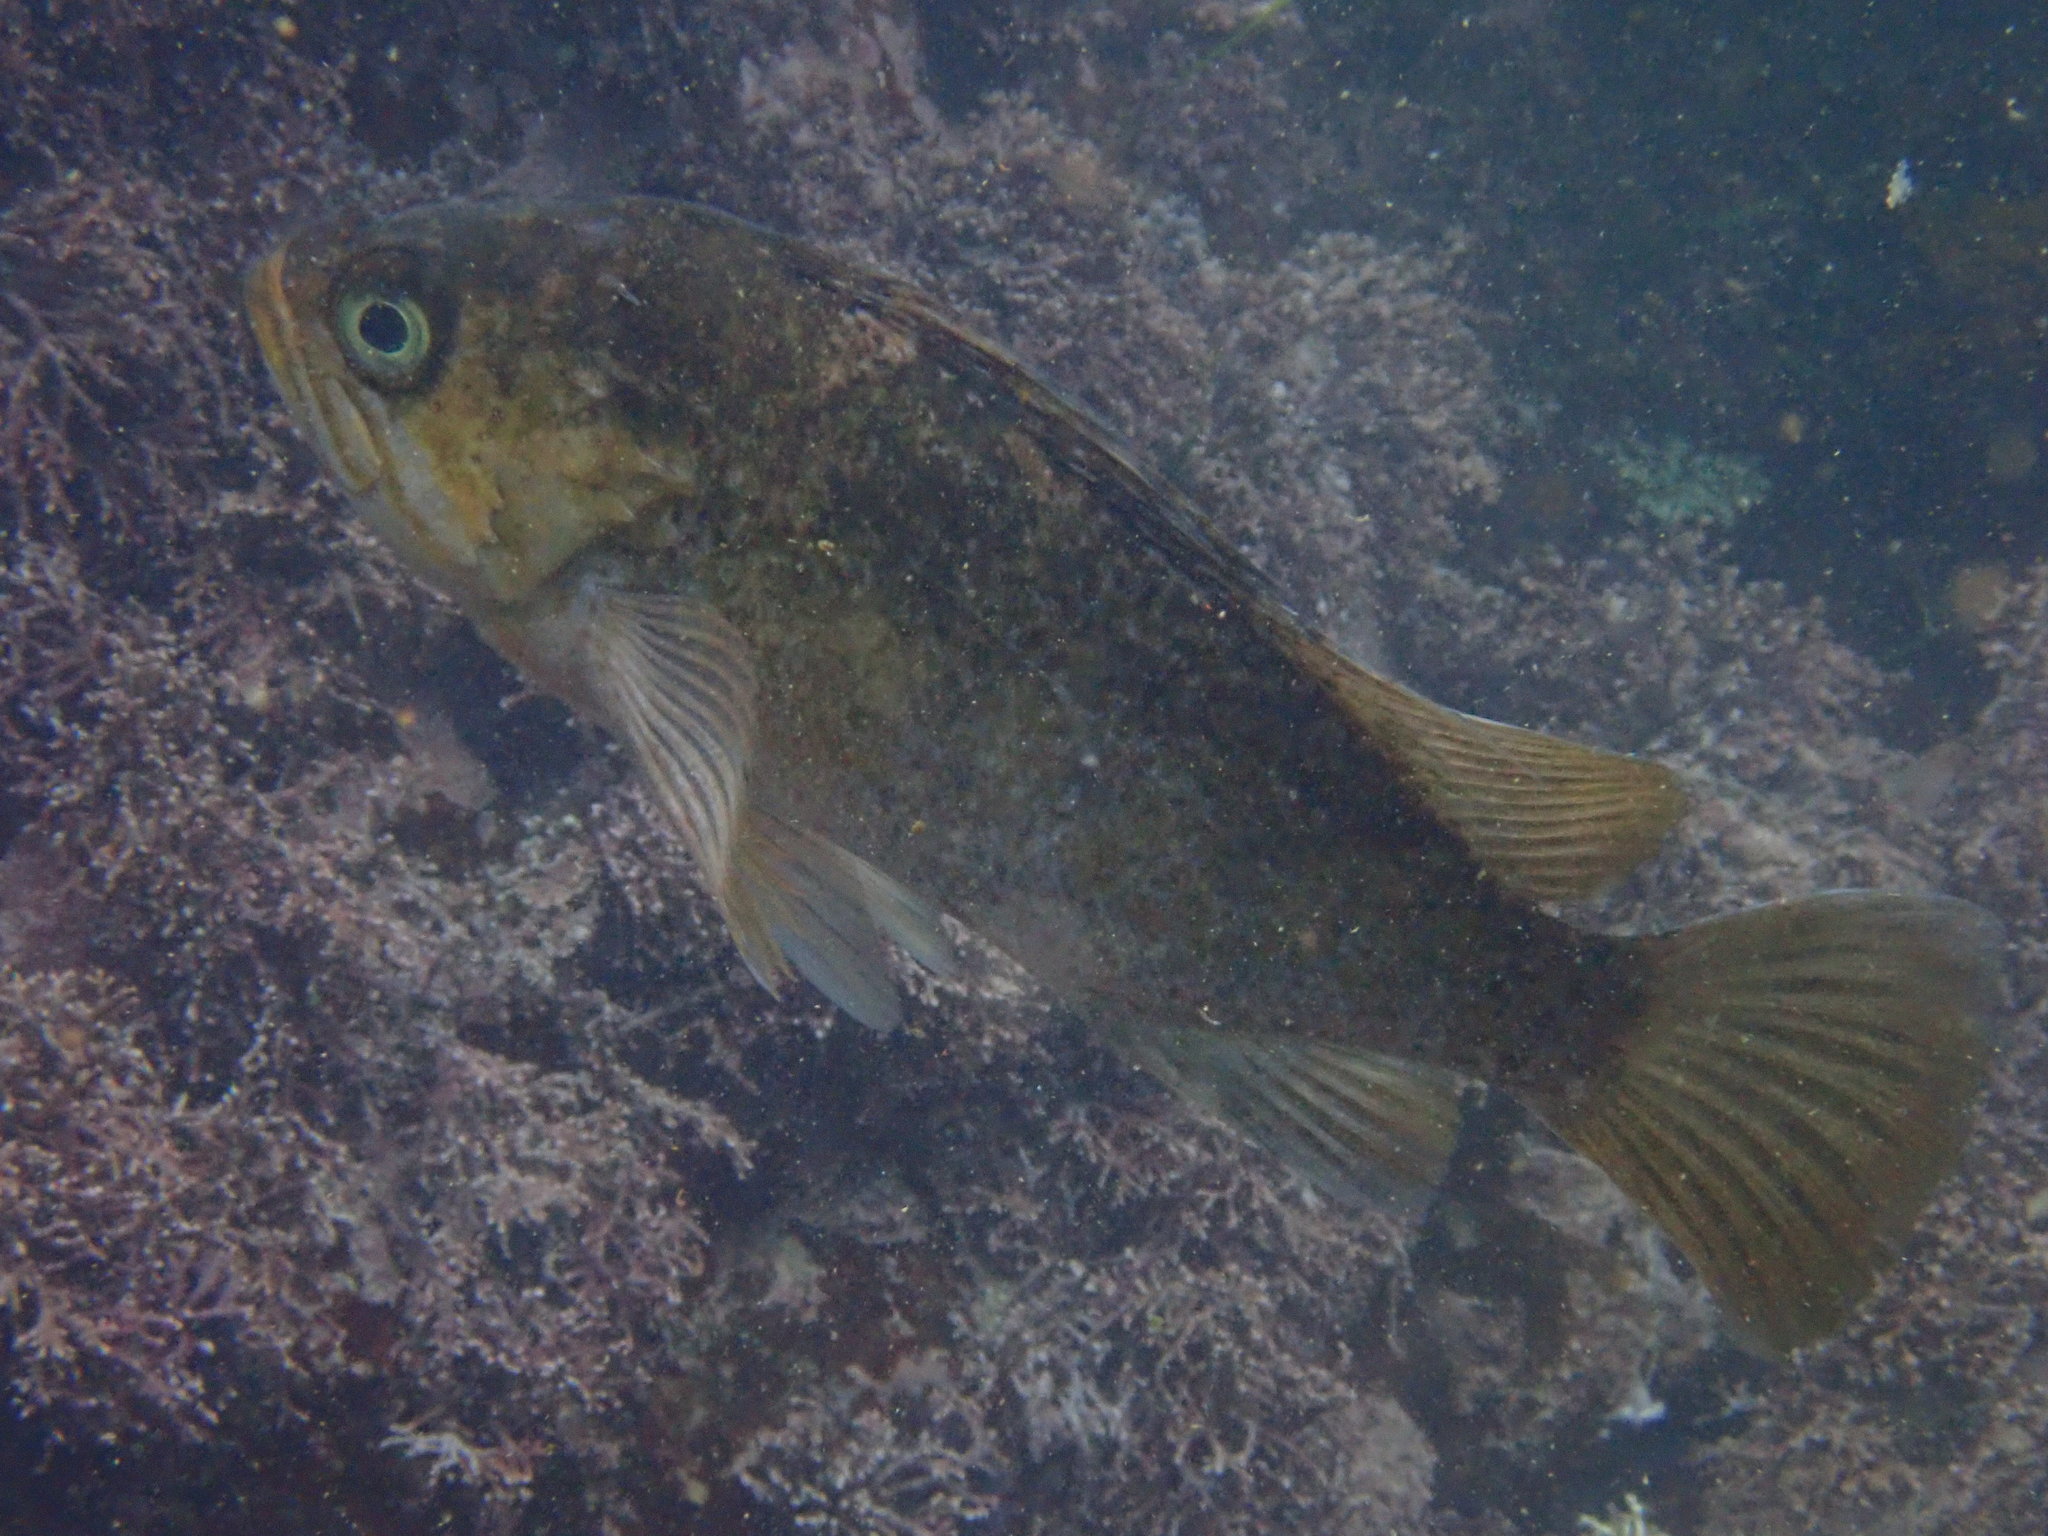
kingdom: Animalia
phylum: Chordata
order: Scorpaeniformes
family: Sebastidae
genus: Sebastes
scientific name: Sebastes atrovirens
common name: Kelp rockfish
